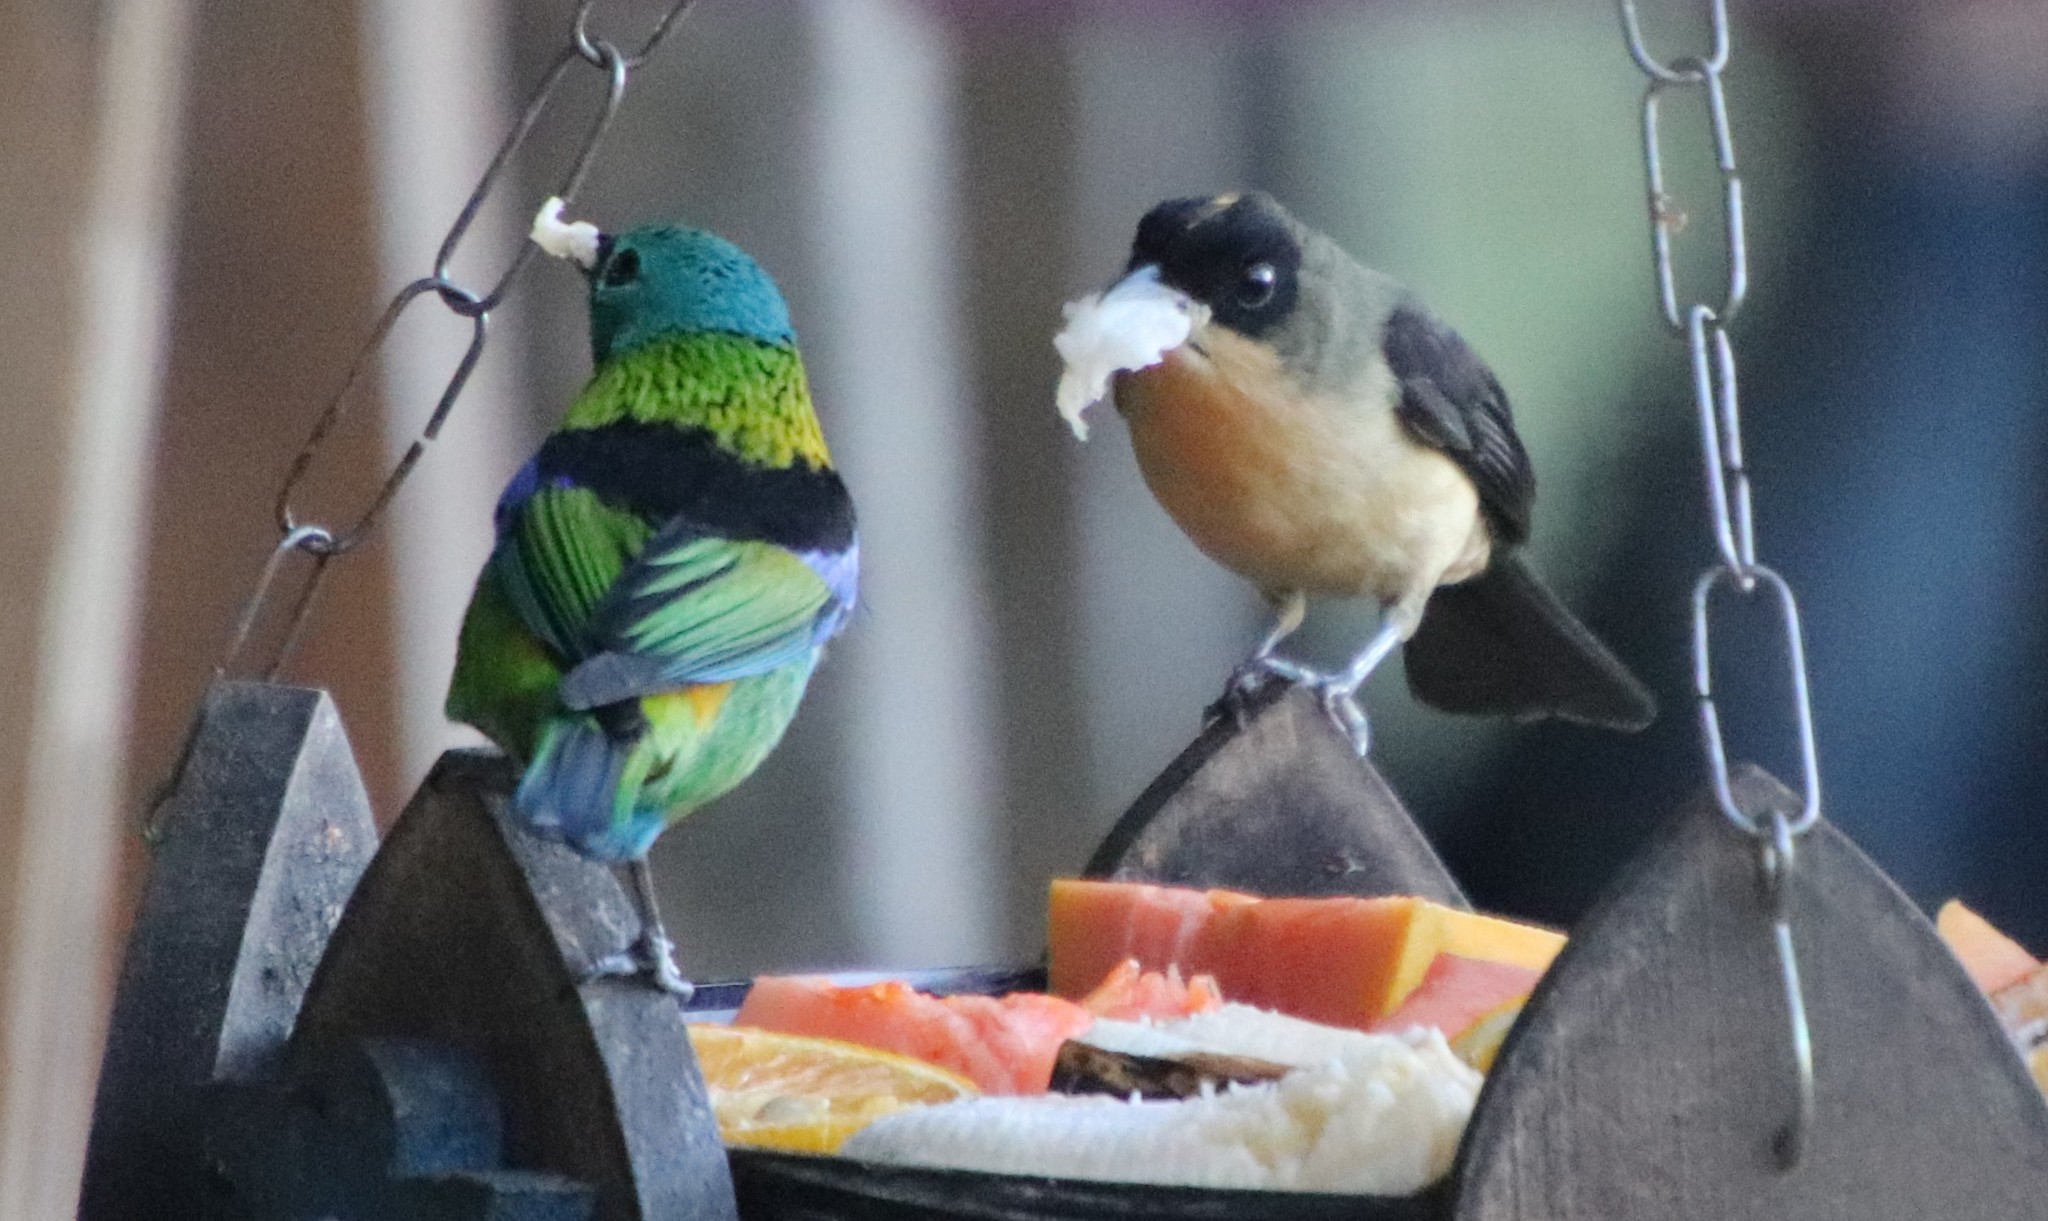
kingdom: Animalia
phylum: Chordata
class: Aves
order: Passeriformes
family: Thraupidae
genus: Trichothraupis
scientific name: Trichothraupis melanops
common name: Black-goggled tanager
